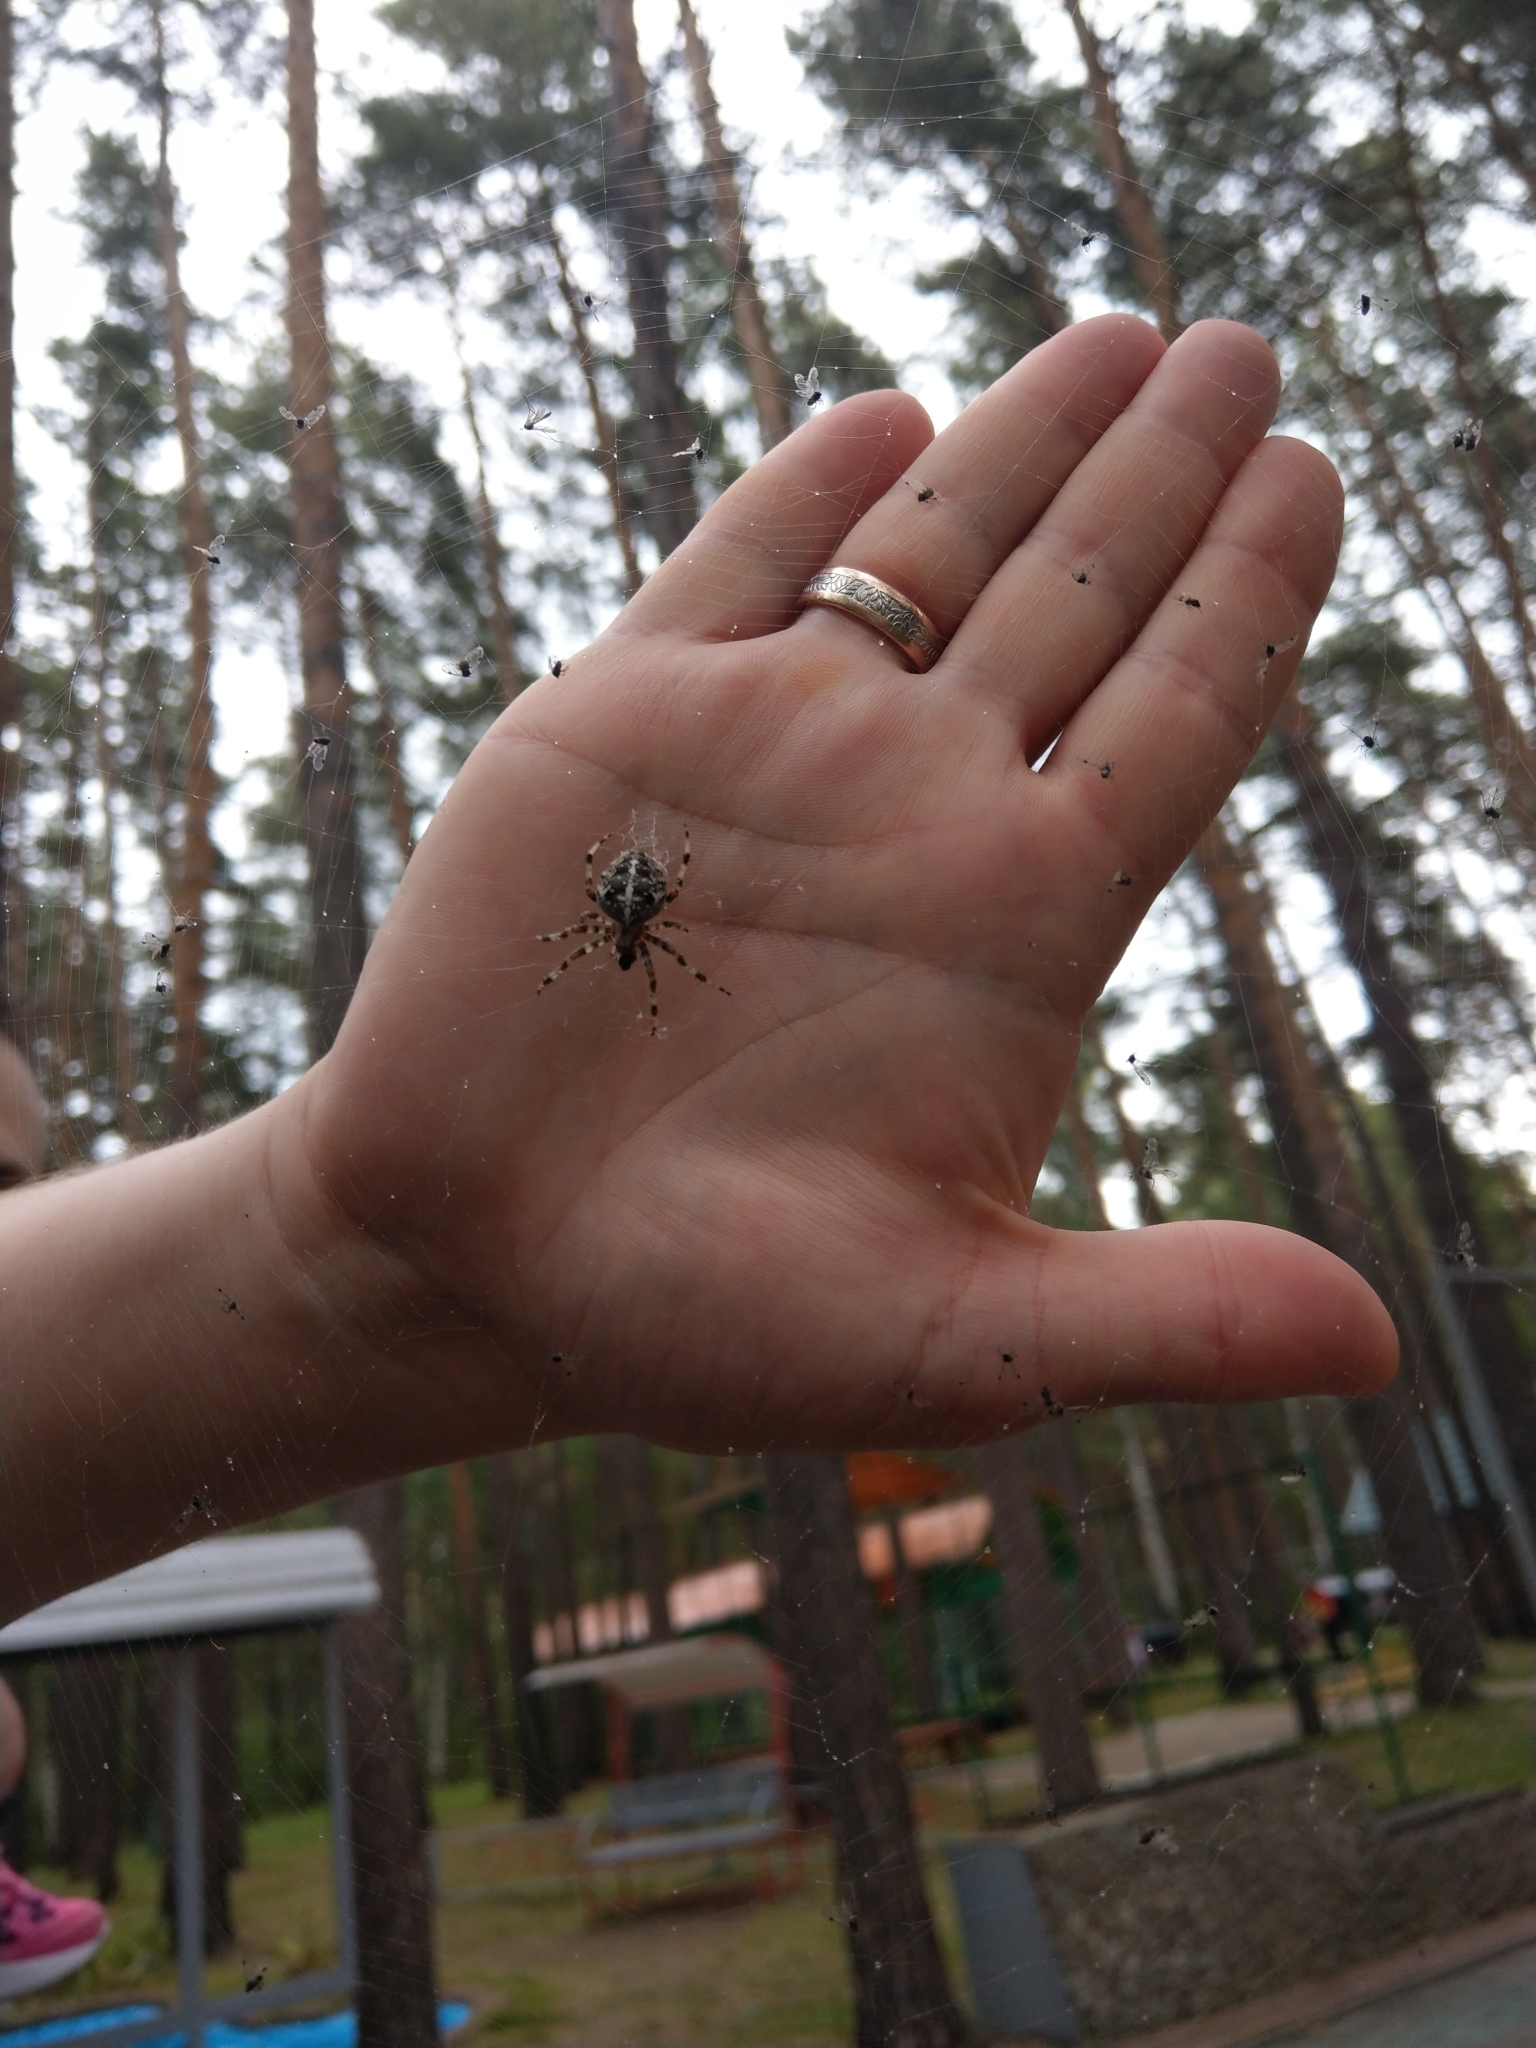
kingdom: Animalia
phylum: Arthropoda
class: Arachnida
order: Araneae
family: Araneidae
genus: Araneus
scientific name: Araneus diadematus
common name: Cross orbweaver
